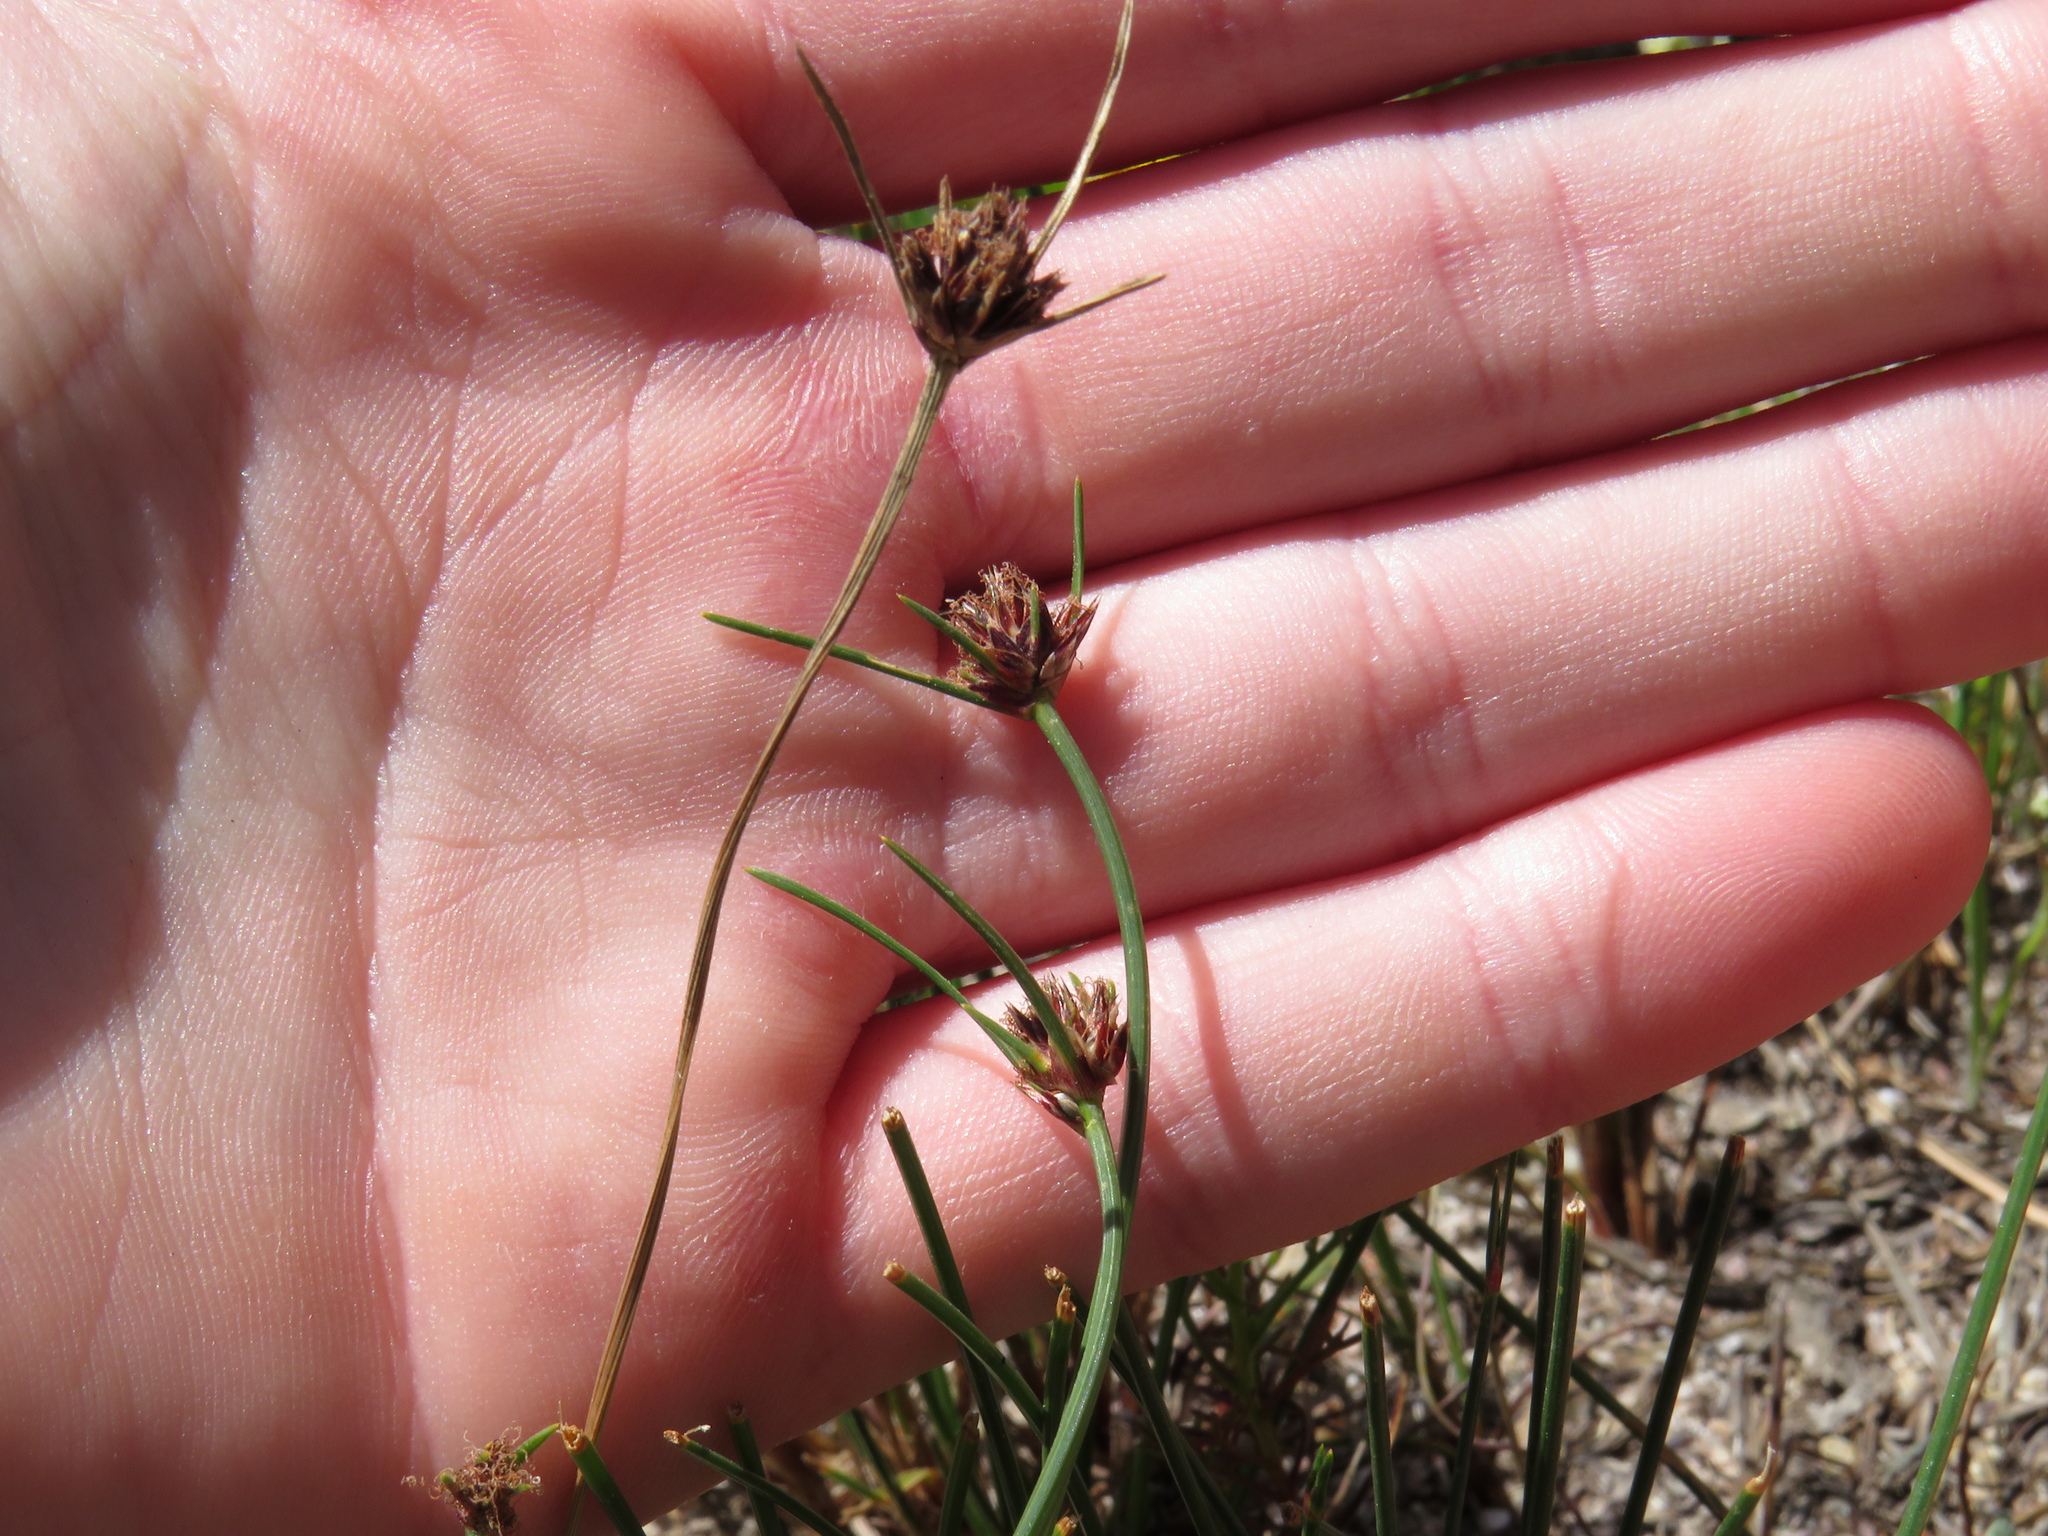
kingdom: Plantae
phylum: Tracheophyta
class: Liliopsida
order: Poales
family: Cyperaceae
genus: Ficinia
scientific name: Ficinia indica
